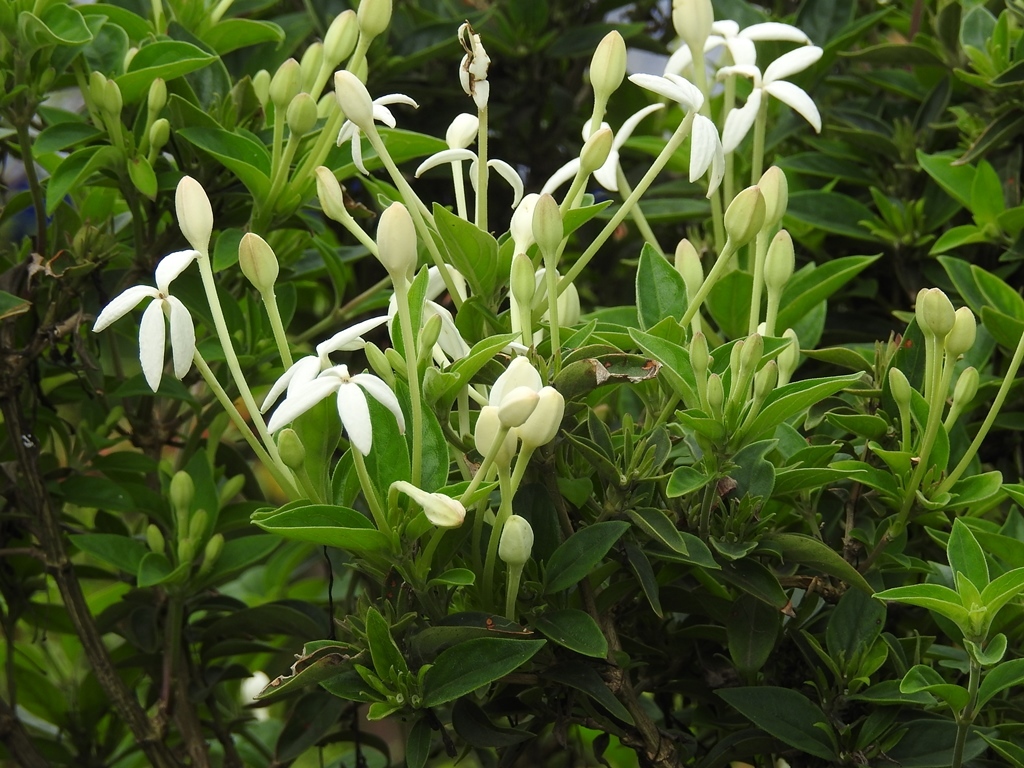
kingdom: Plantae
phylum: Tracheophyta
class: Magnoliopsida
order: Gentianales
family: Rubiaceae
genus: Bouvardia
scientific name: Bouvardia longiflora
